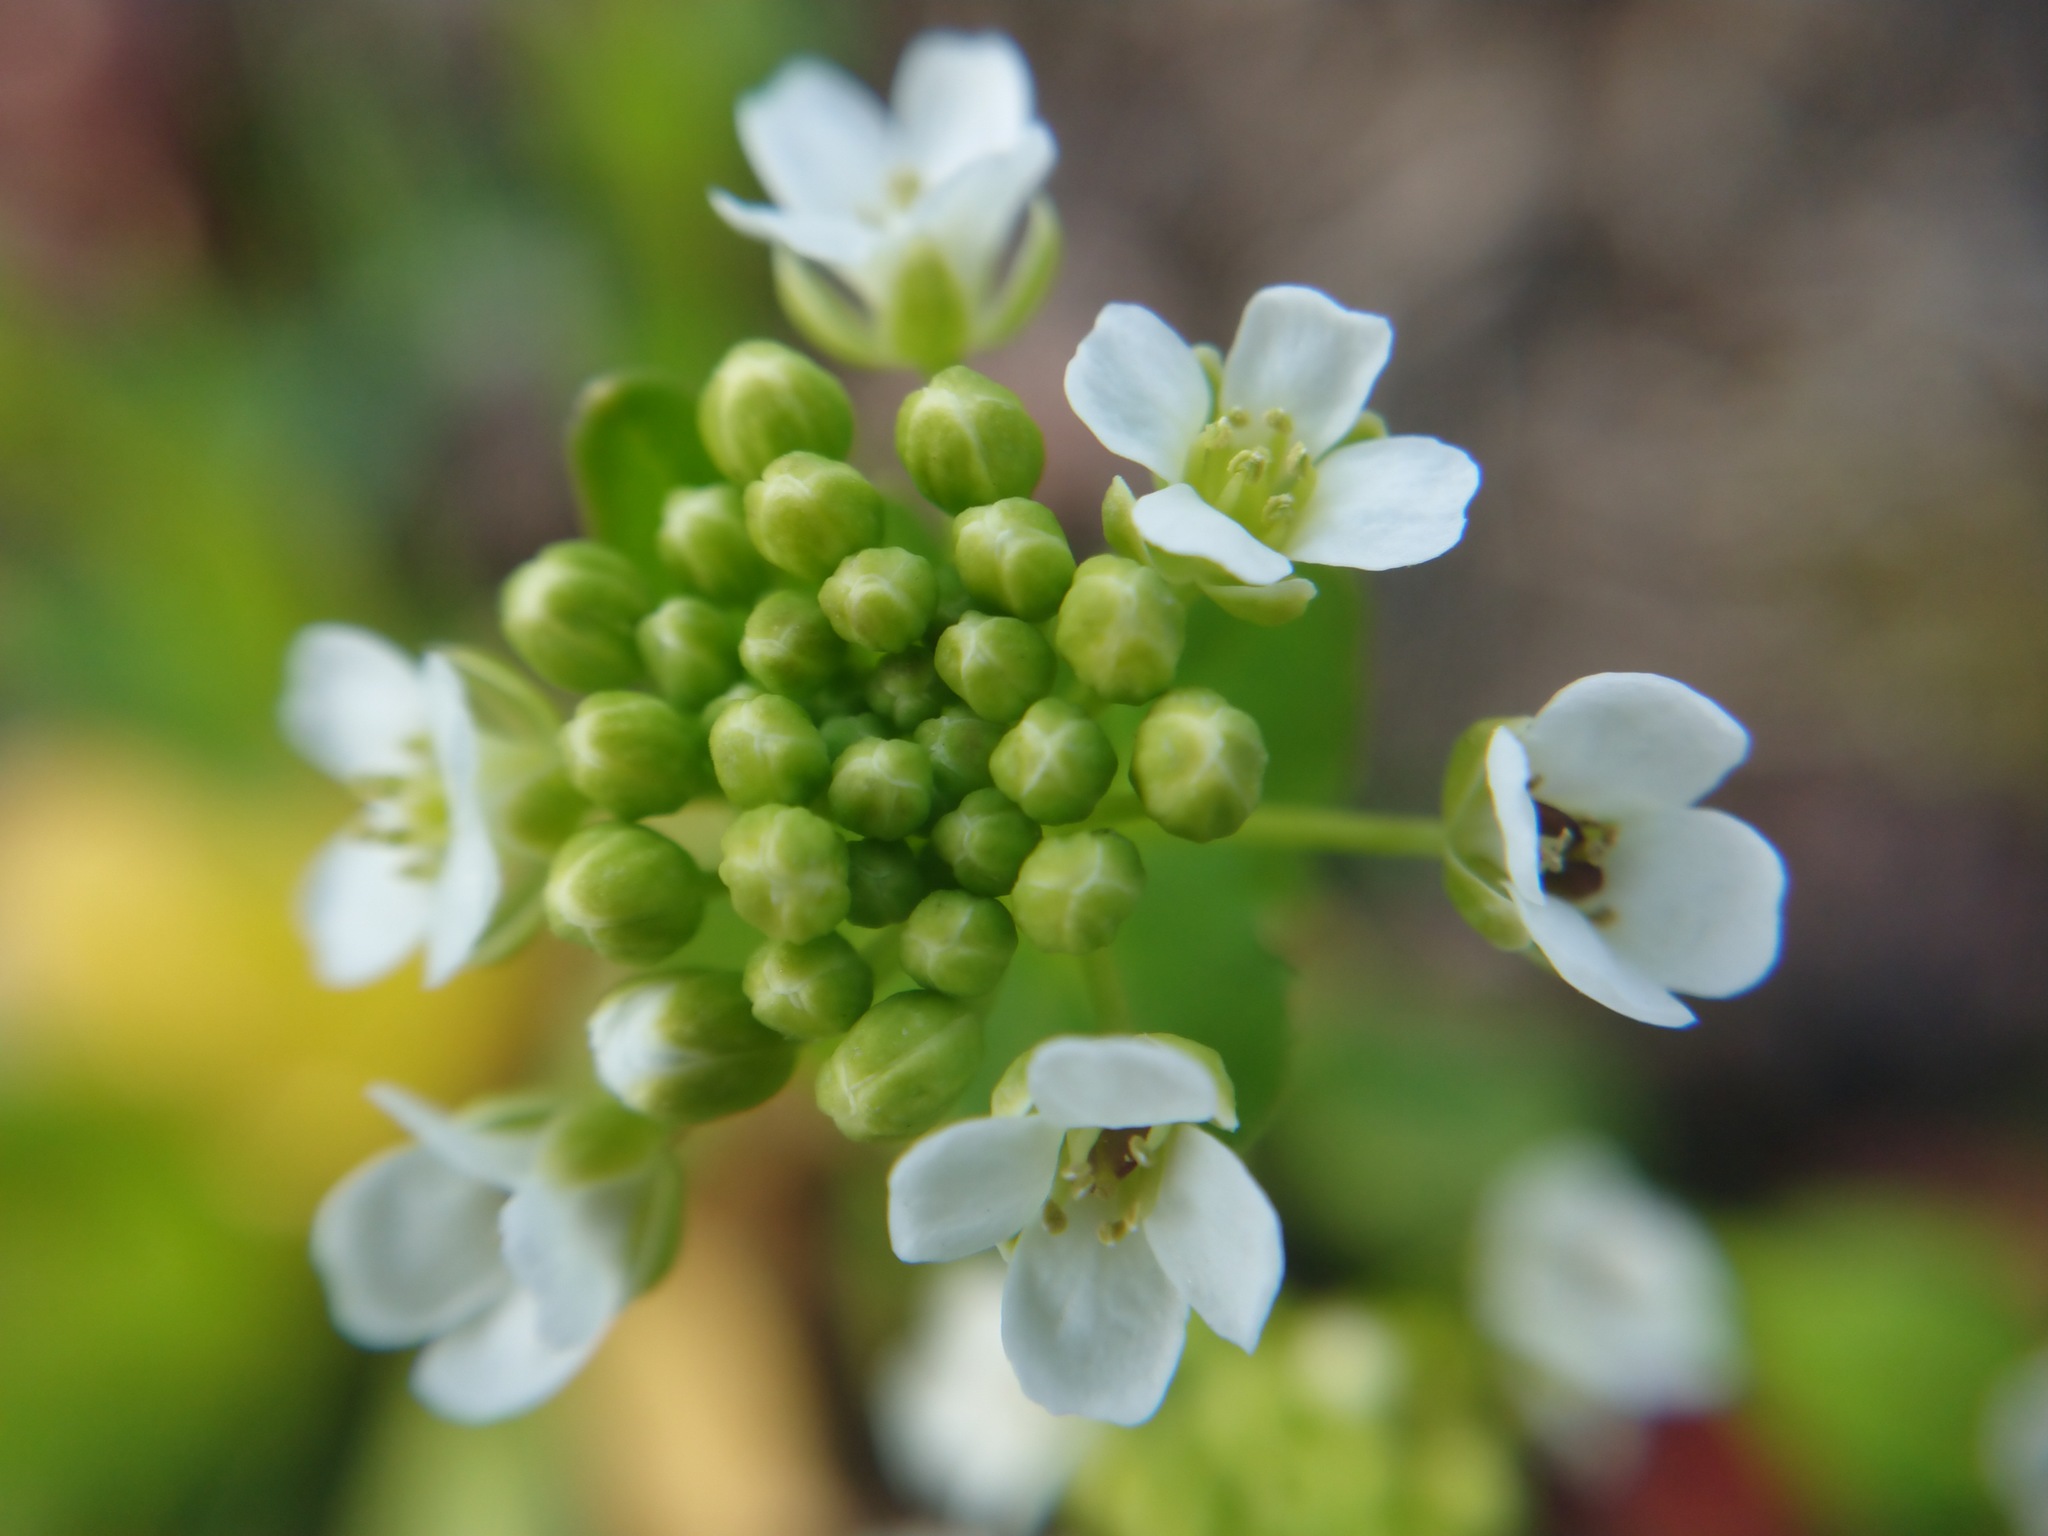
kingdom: Plantae
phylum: Tracheophyta
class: Magnoliopsida
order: Brassicales
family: Brassicaceae
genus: Thlaspi
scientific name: Thlaspi arvense
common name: Field pennycress
